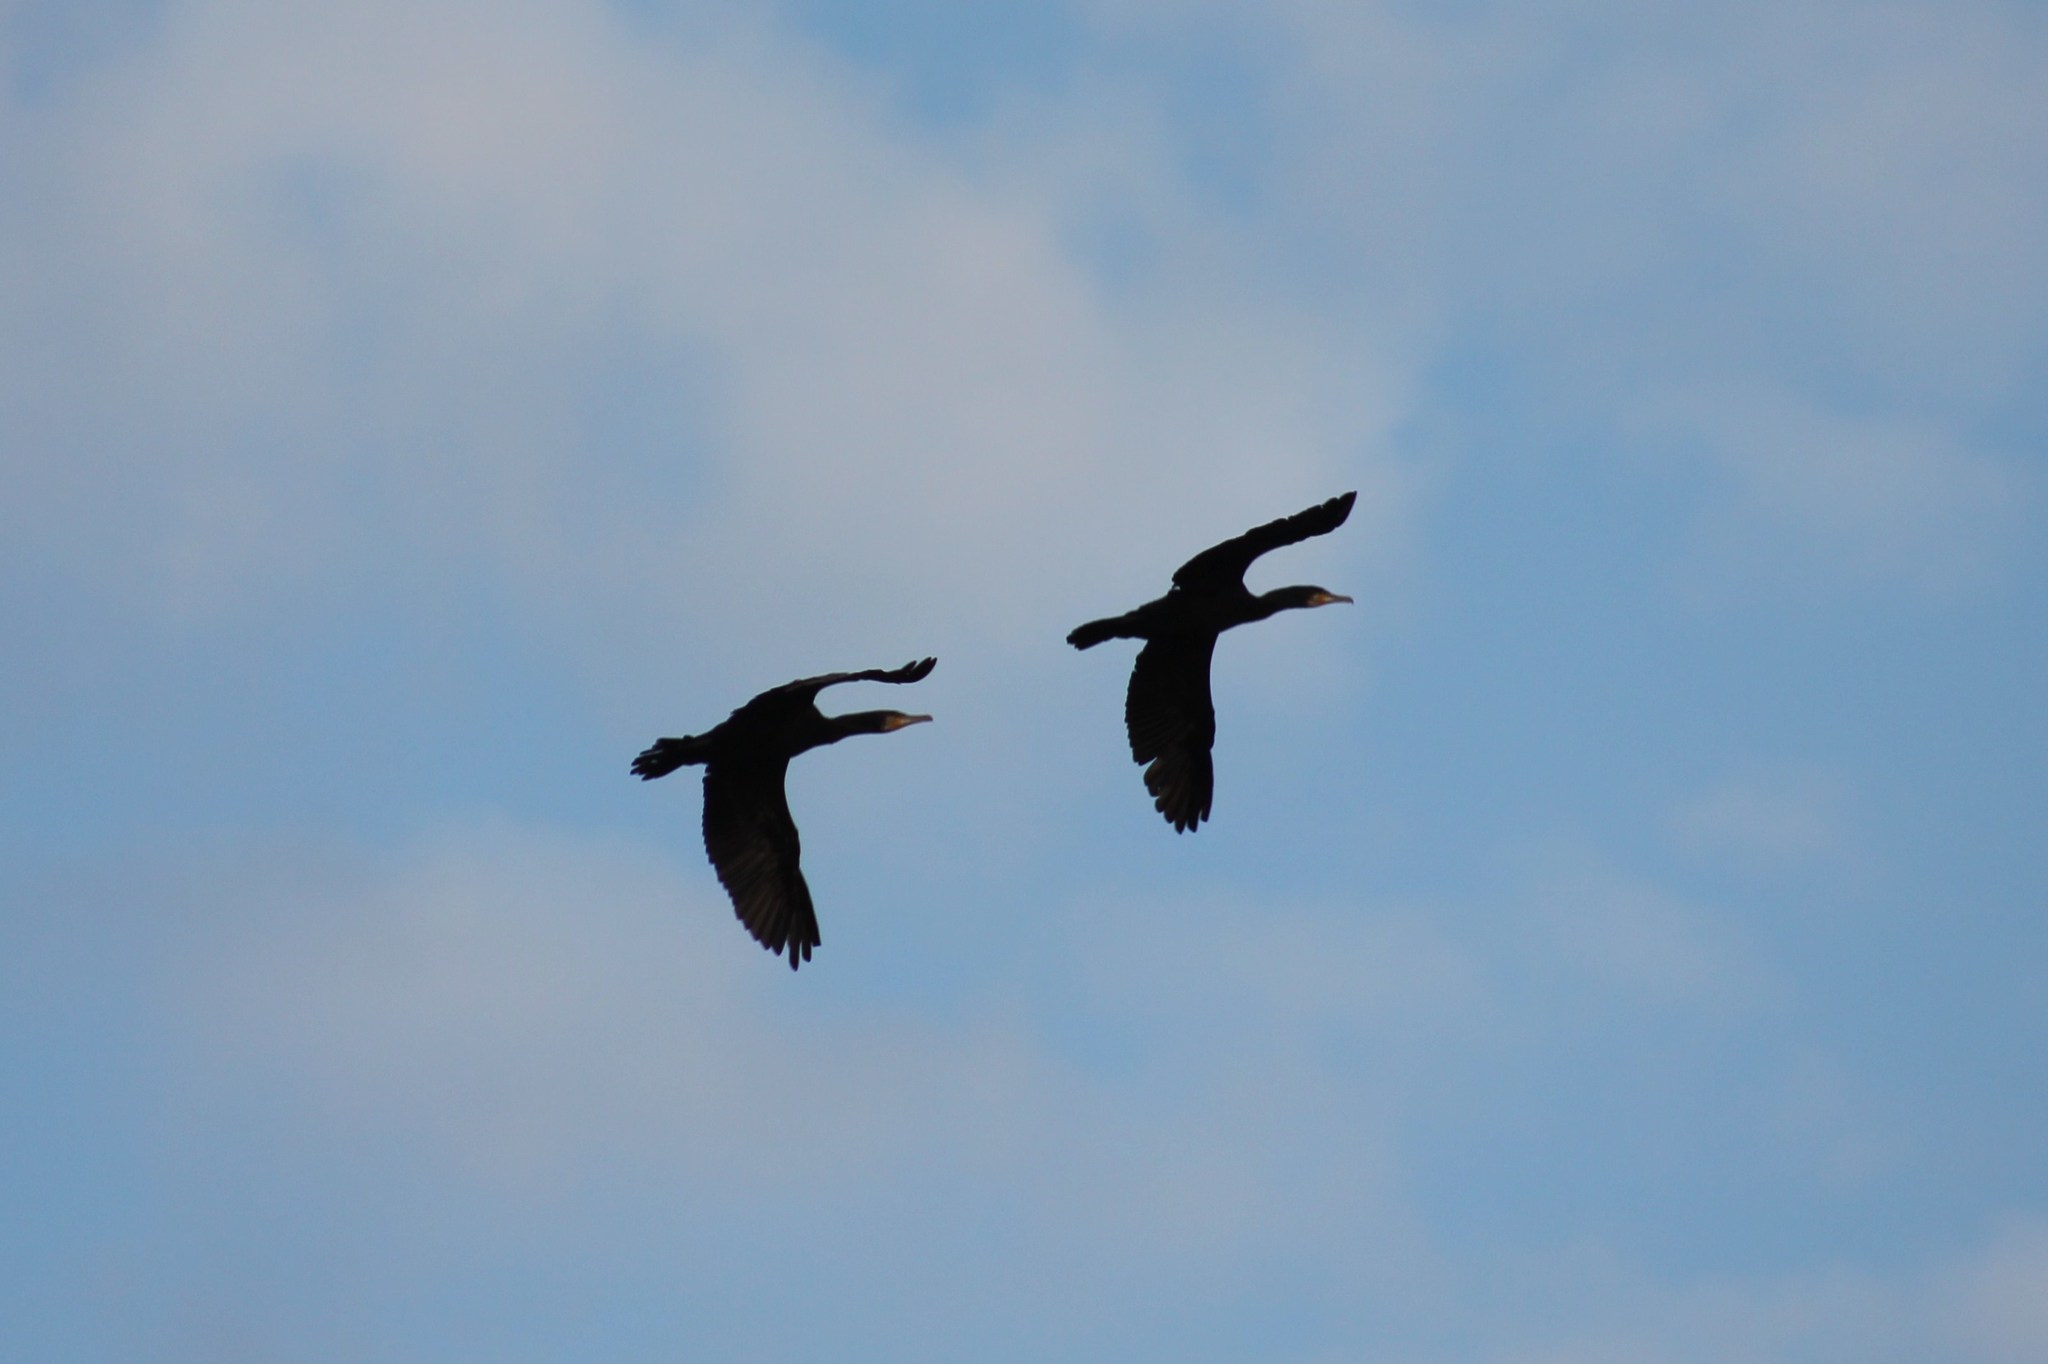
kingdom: Animalia
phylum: Chordata
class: Aves
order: Suliformes
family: Phalacrocoracidae
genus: Phalacrocorax
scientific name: Phalacrocorax carbo
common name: Great cormorant
